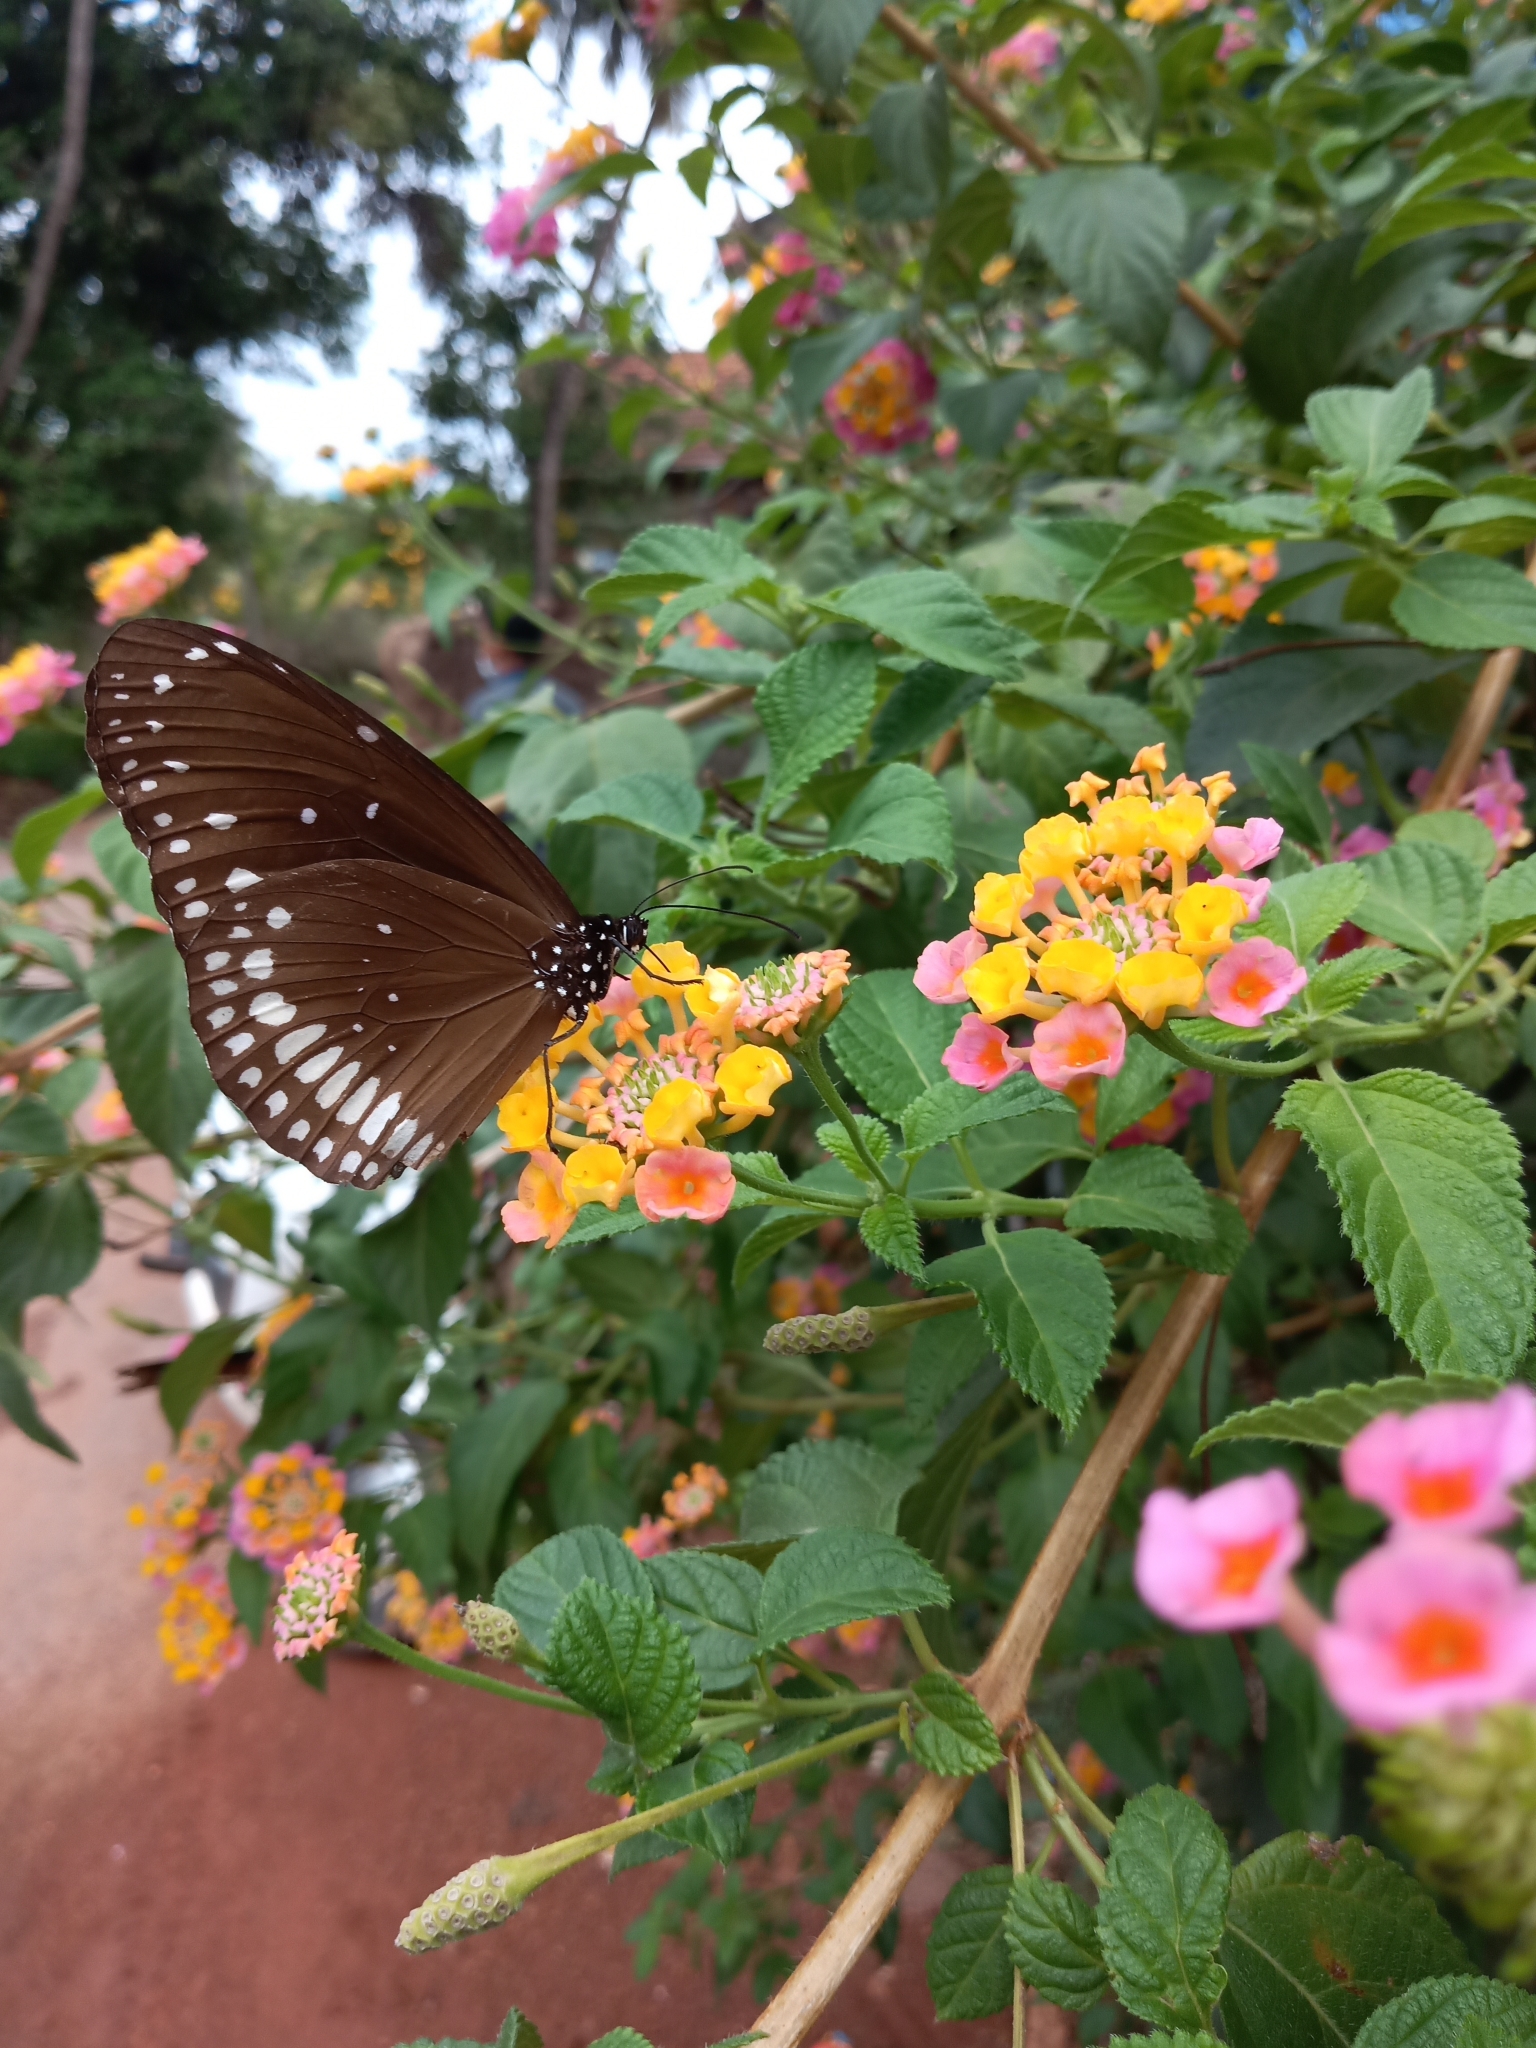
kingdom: Animalia
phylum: Arthropoda
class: Insecta
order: Lepidoptera
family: Nymphalidae
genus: Euploea
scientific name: Euploea core
